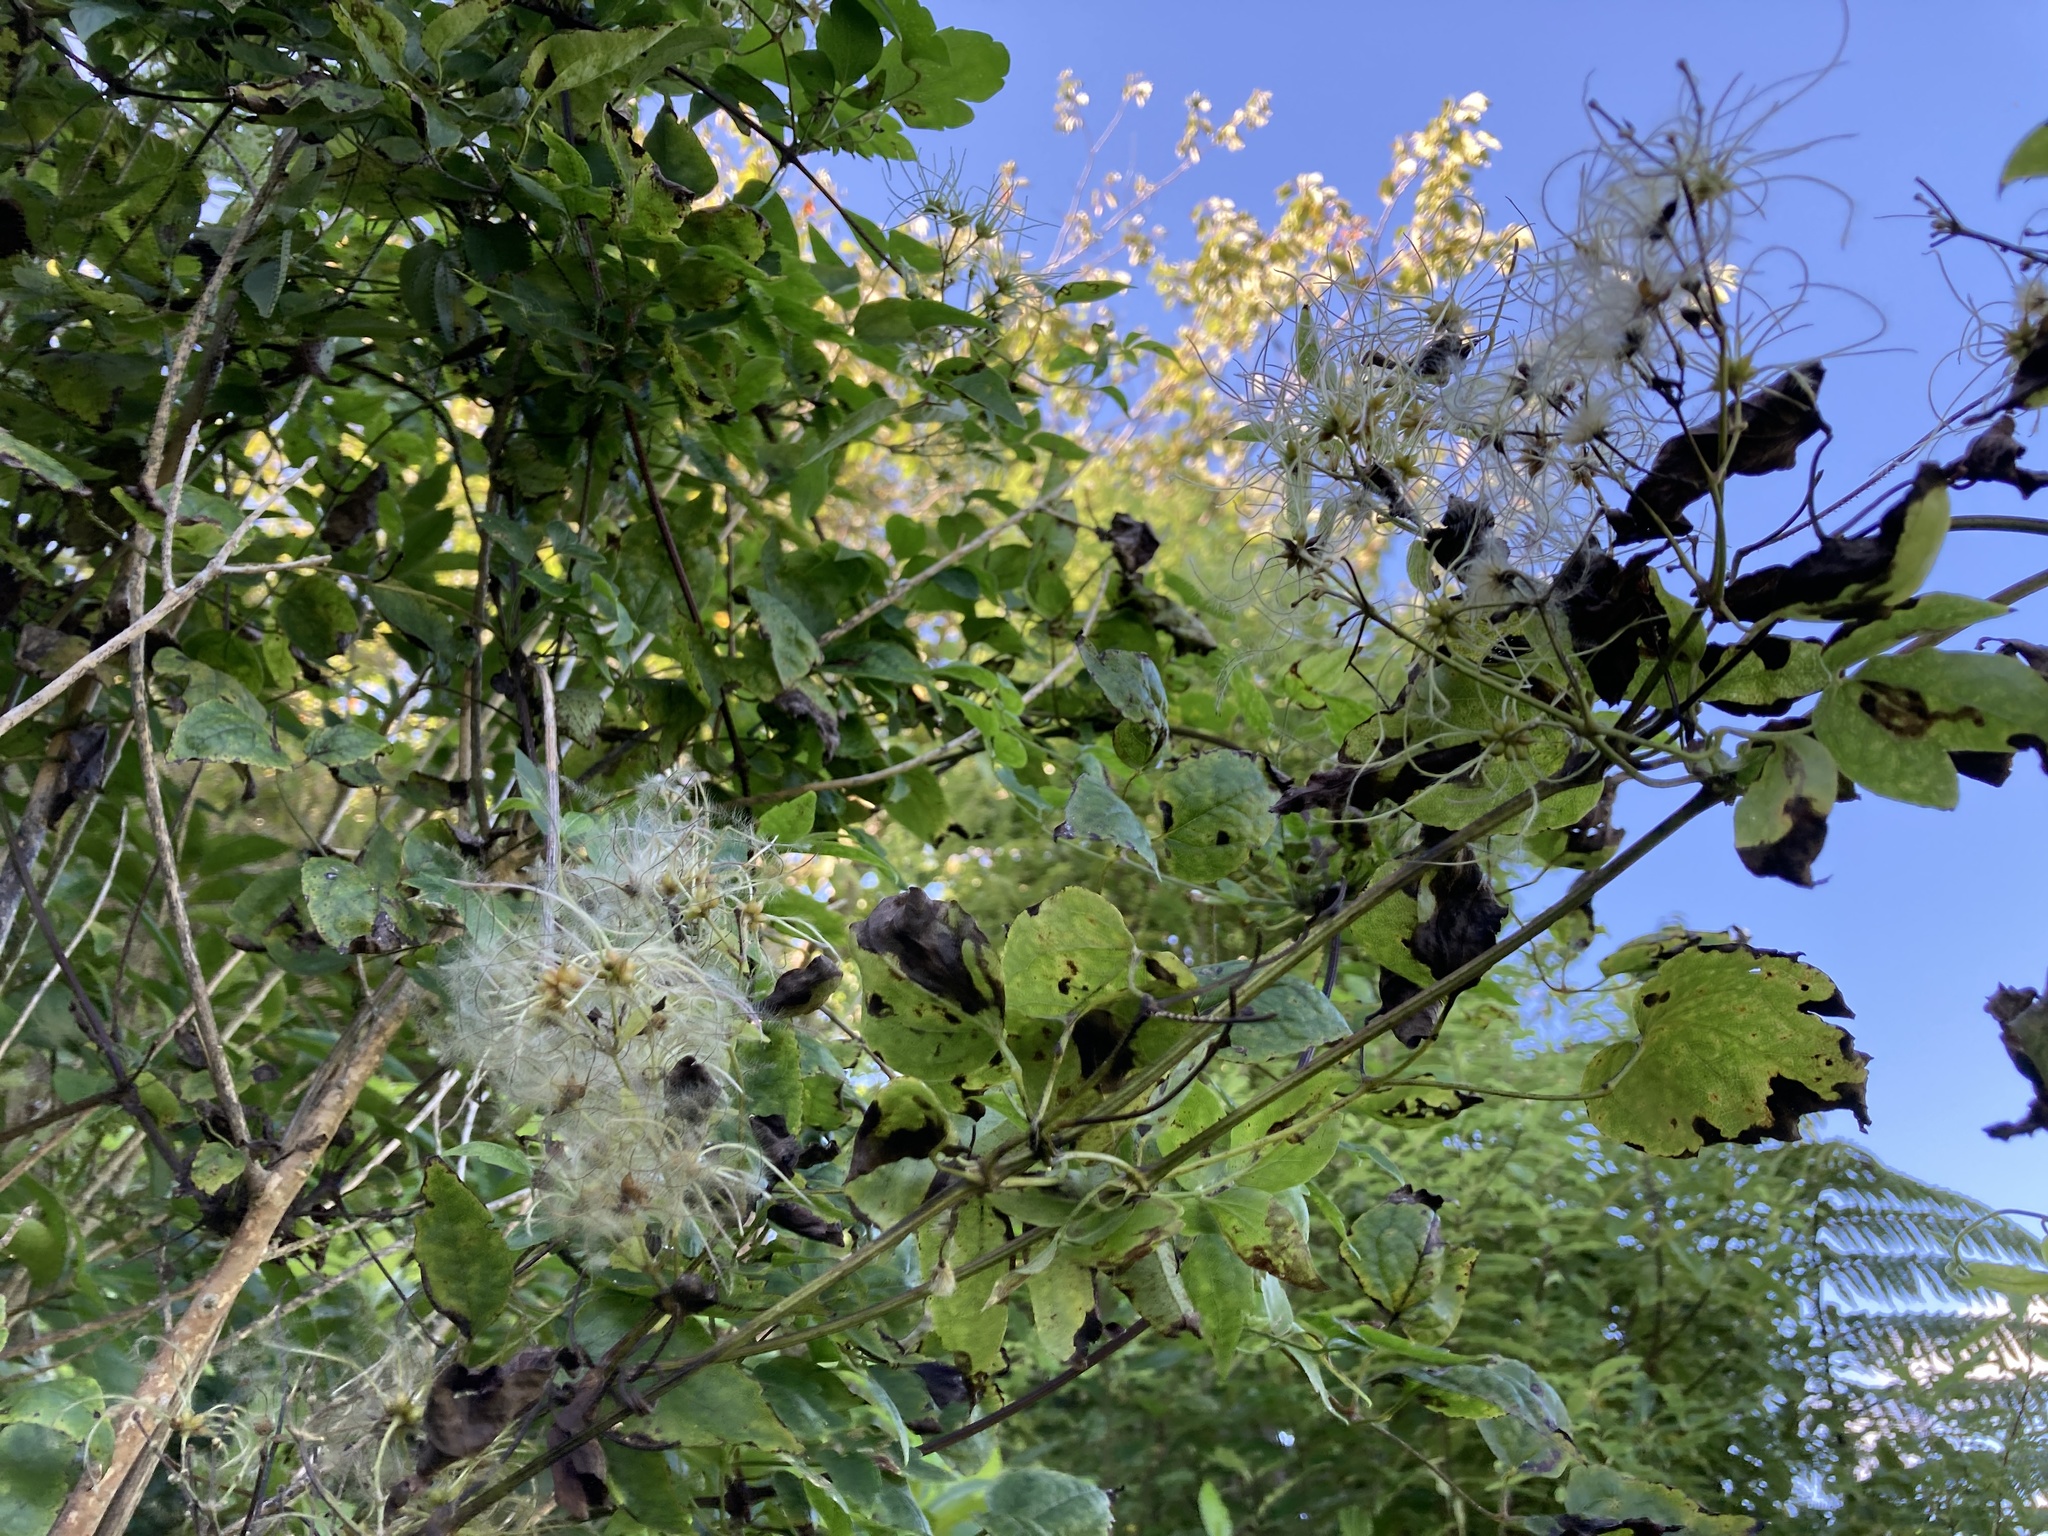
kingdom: Plantae
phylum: Tracheophyta
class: Magnoliopsida
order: Ranunculales
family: Ranunculaceae
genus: Clematis
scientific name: Clematis vitalba
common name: Evergreen clematis
